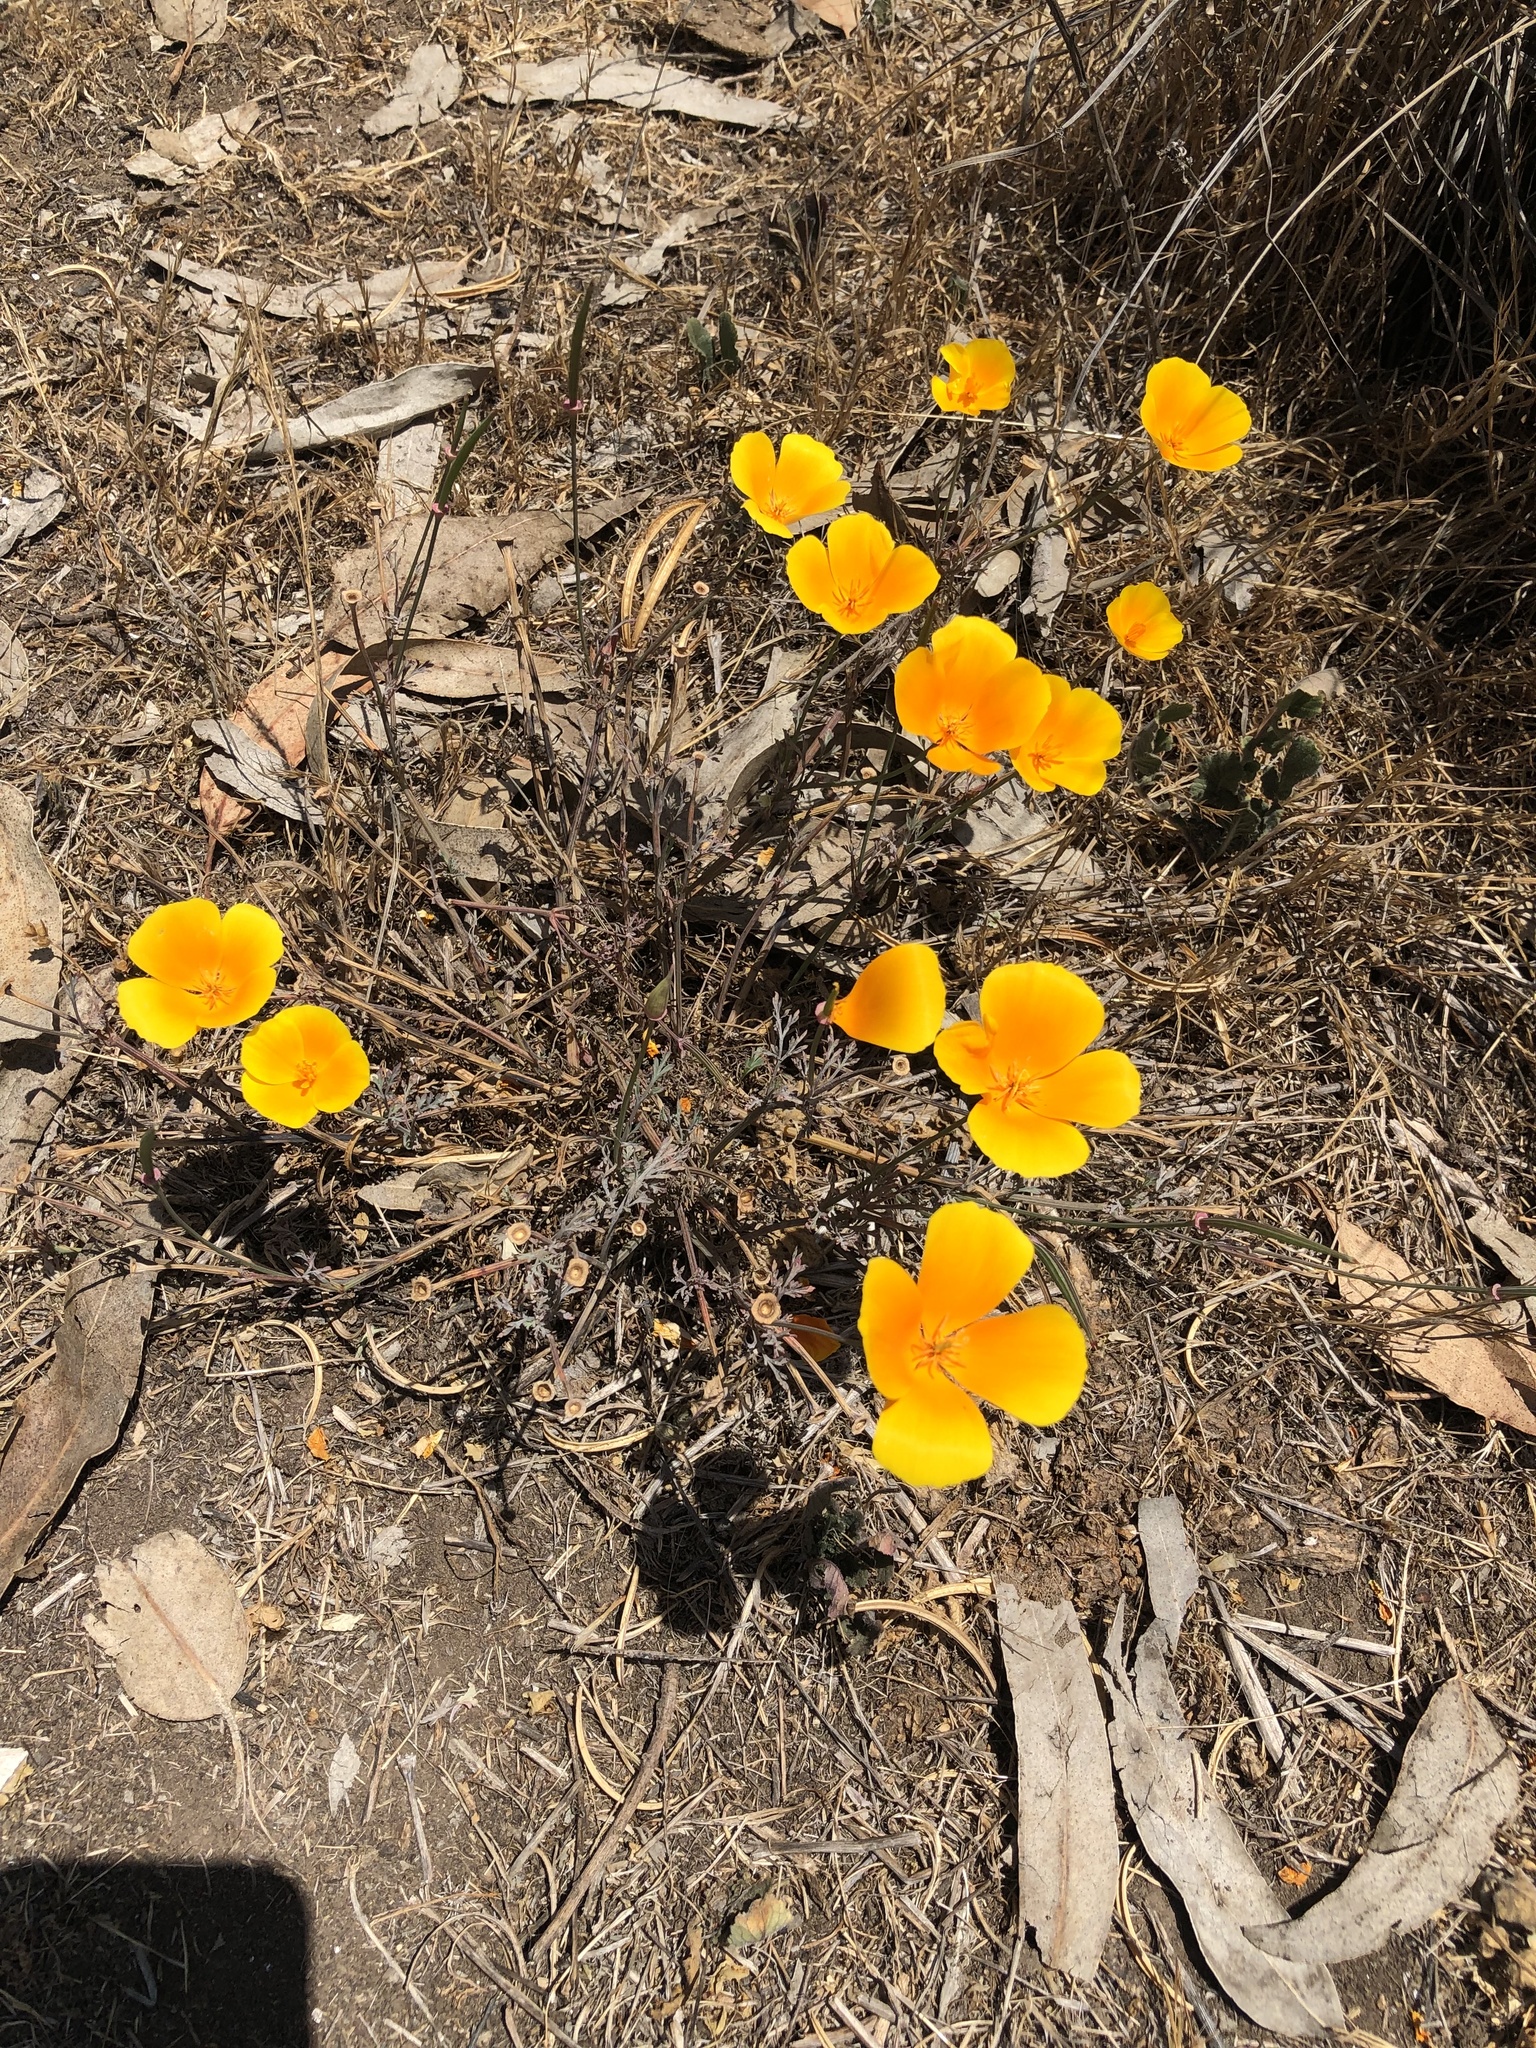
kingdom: Plantae
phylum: Tracheophyta
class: Magnoliopsida
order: Ranunculales
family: Papaveraceae
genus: Eschscholzia
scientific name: Eschscholzia californica
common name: California poppy
